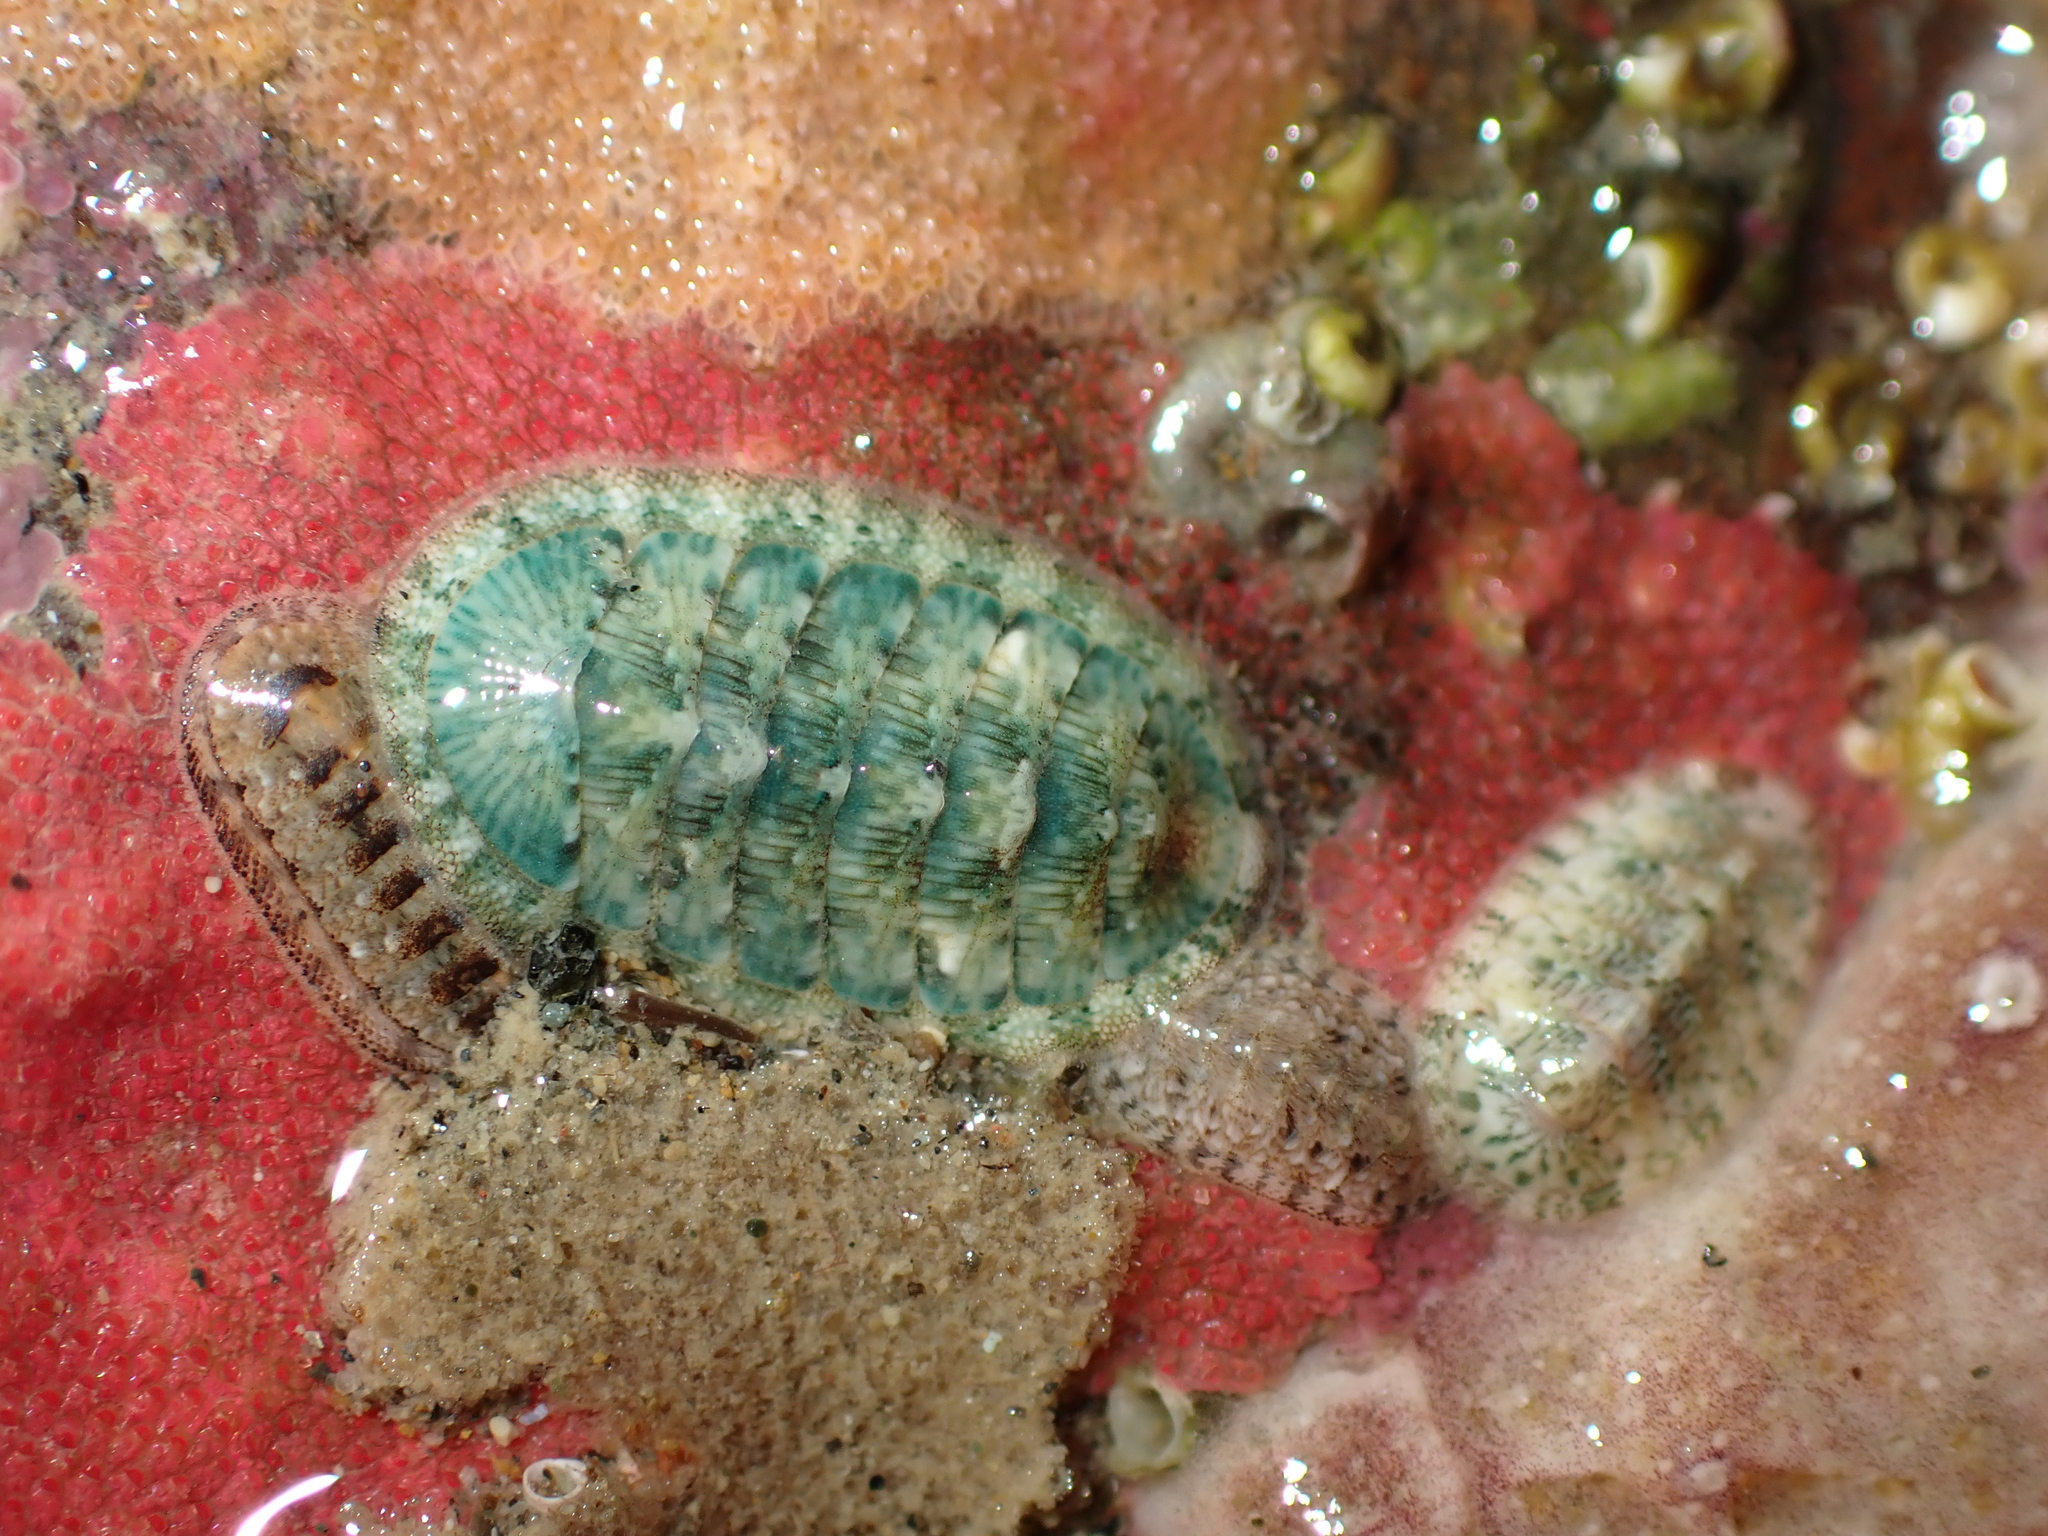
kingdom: Animalia
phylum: Mollusca
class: Polyplacophora
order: Chitonida
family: Chitonidae
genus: Rhyssoplax
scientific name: Rhyssoplax stangeri
